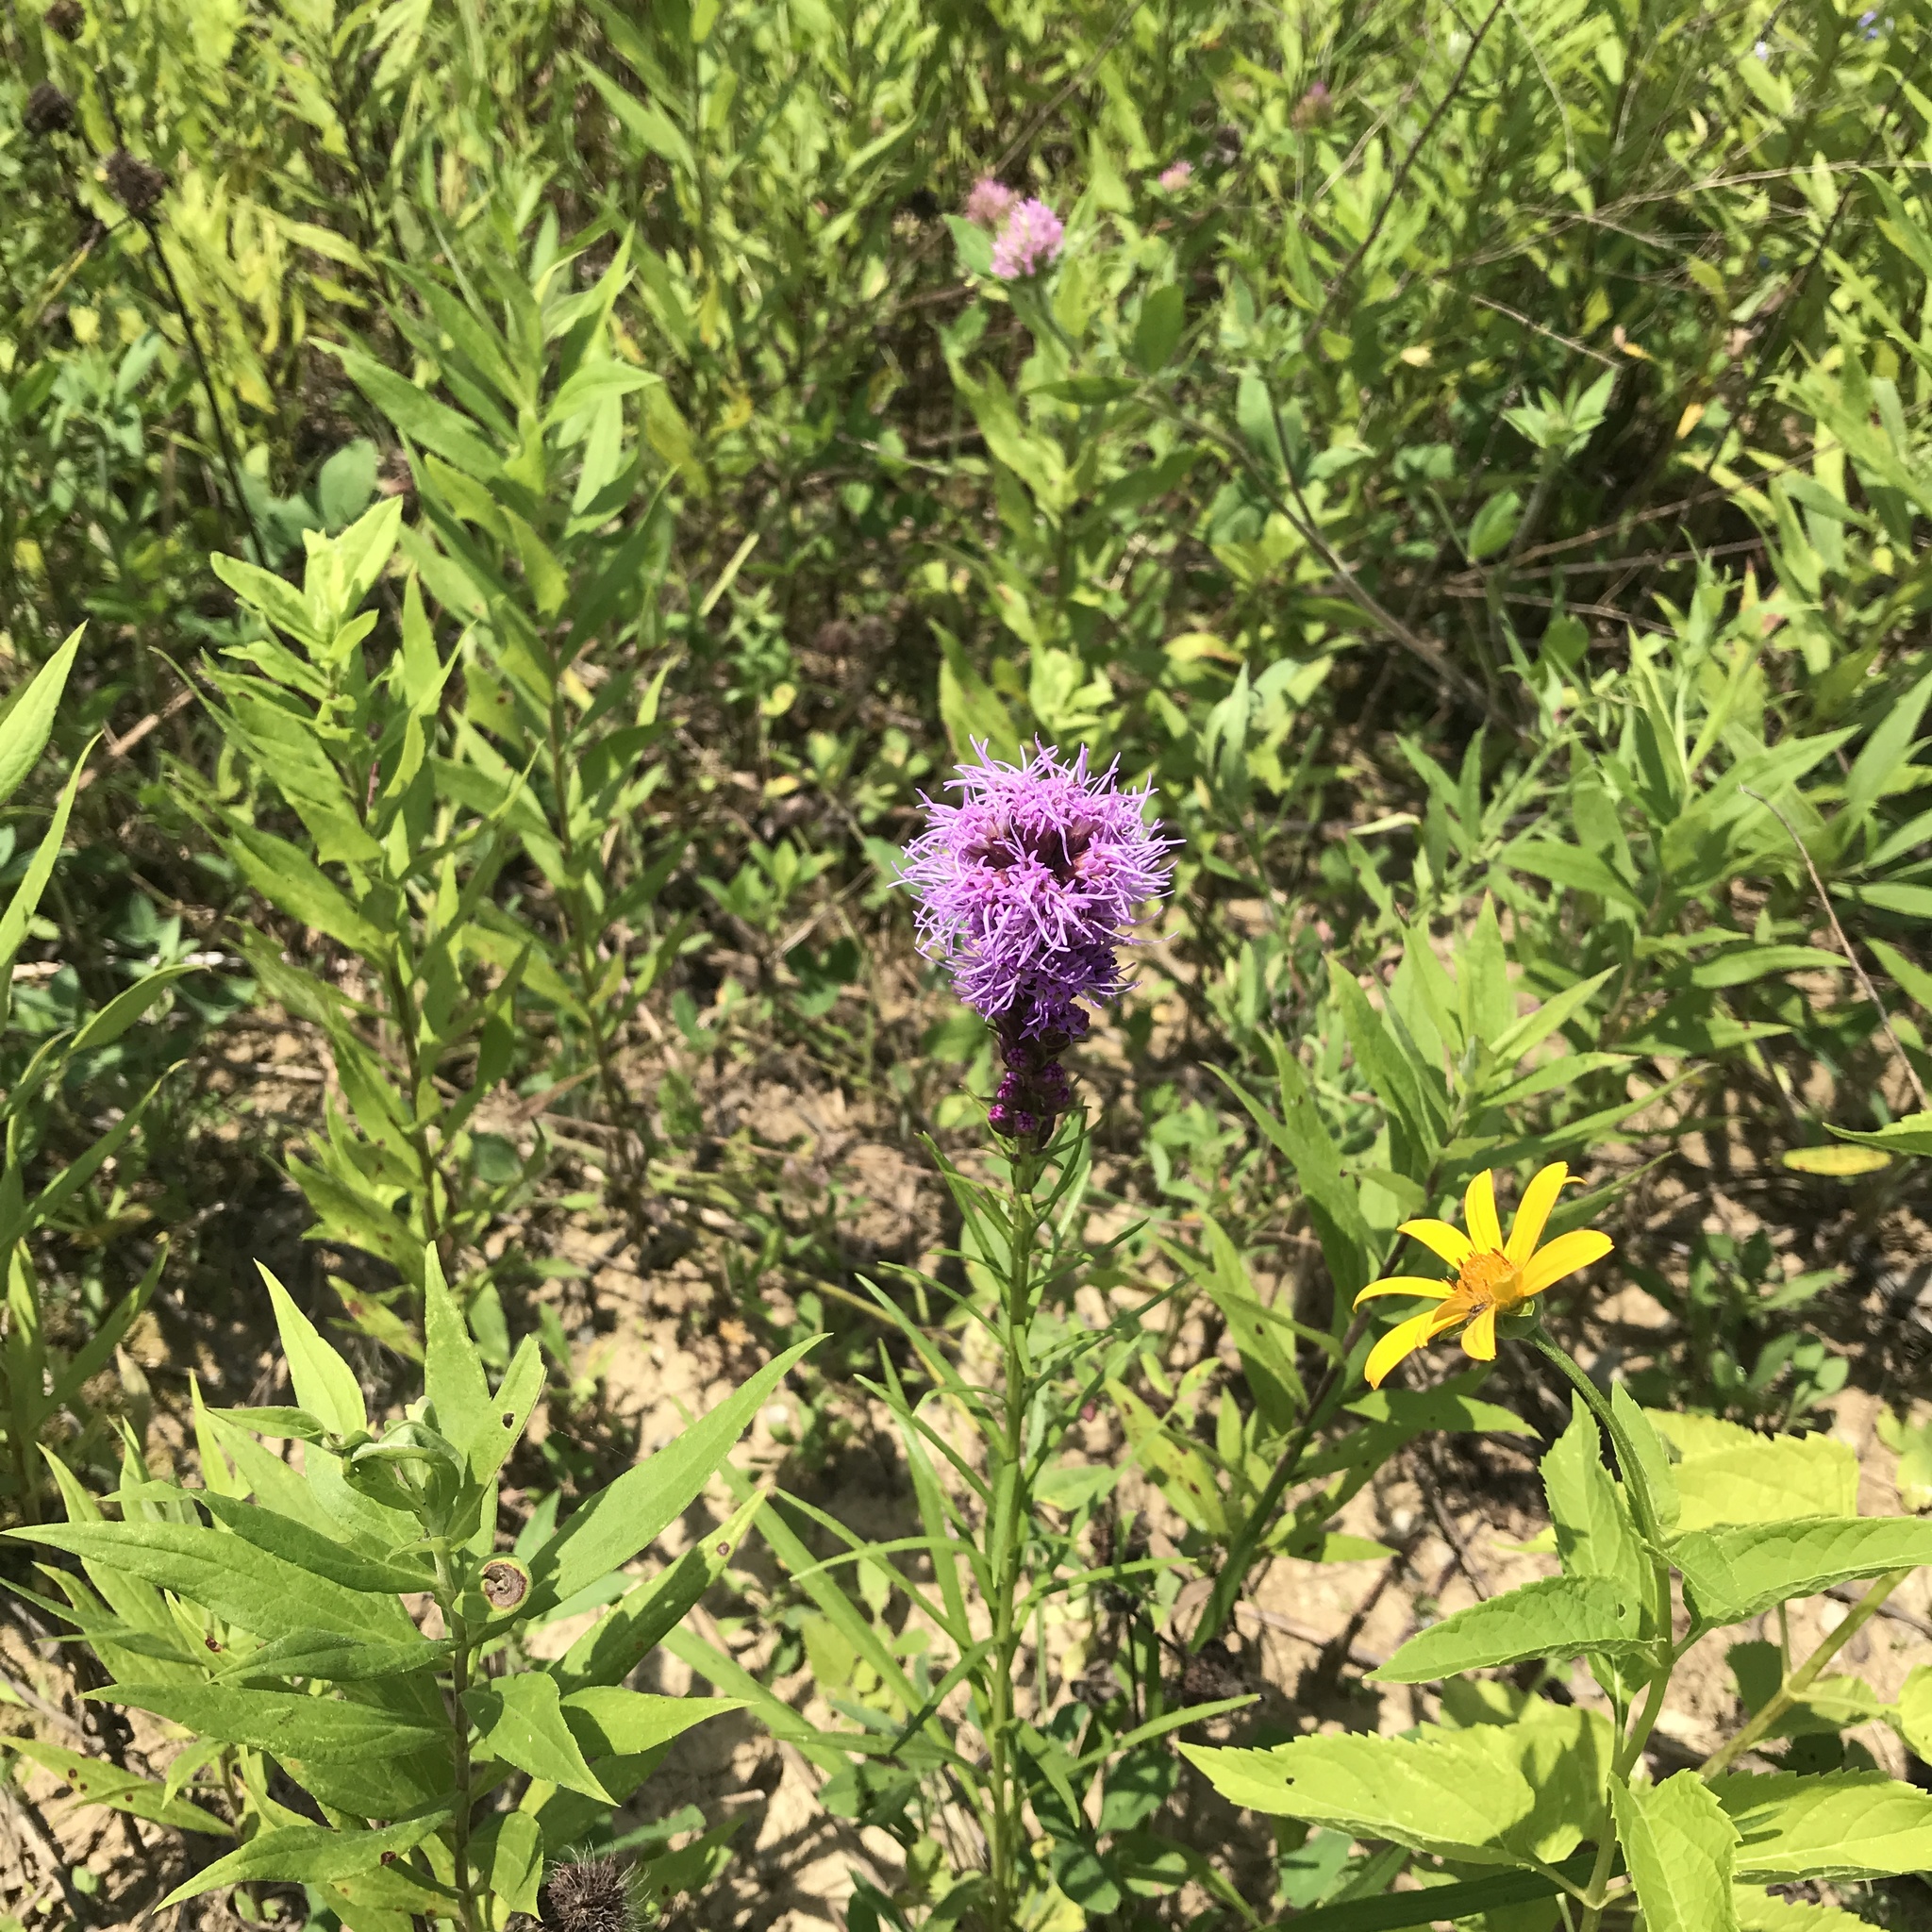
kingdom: Plantae
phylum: Tracheophyta
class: Magnoliopsida
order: Asterales
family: Asteraceae
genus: Liatris
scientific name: Liatris spicata
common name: Florist gayfeather
